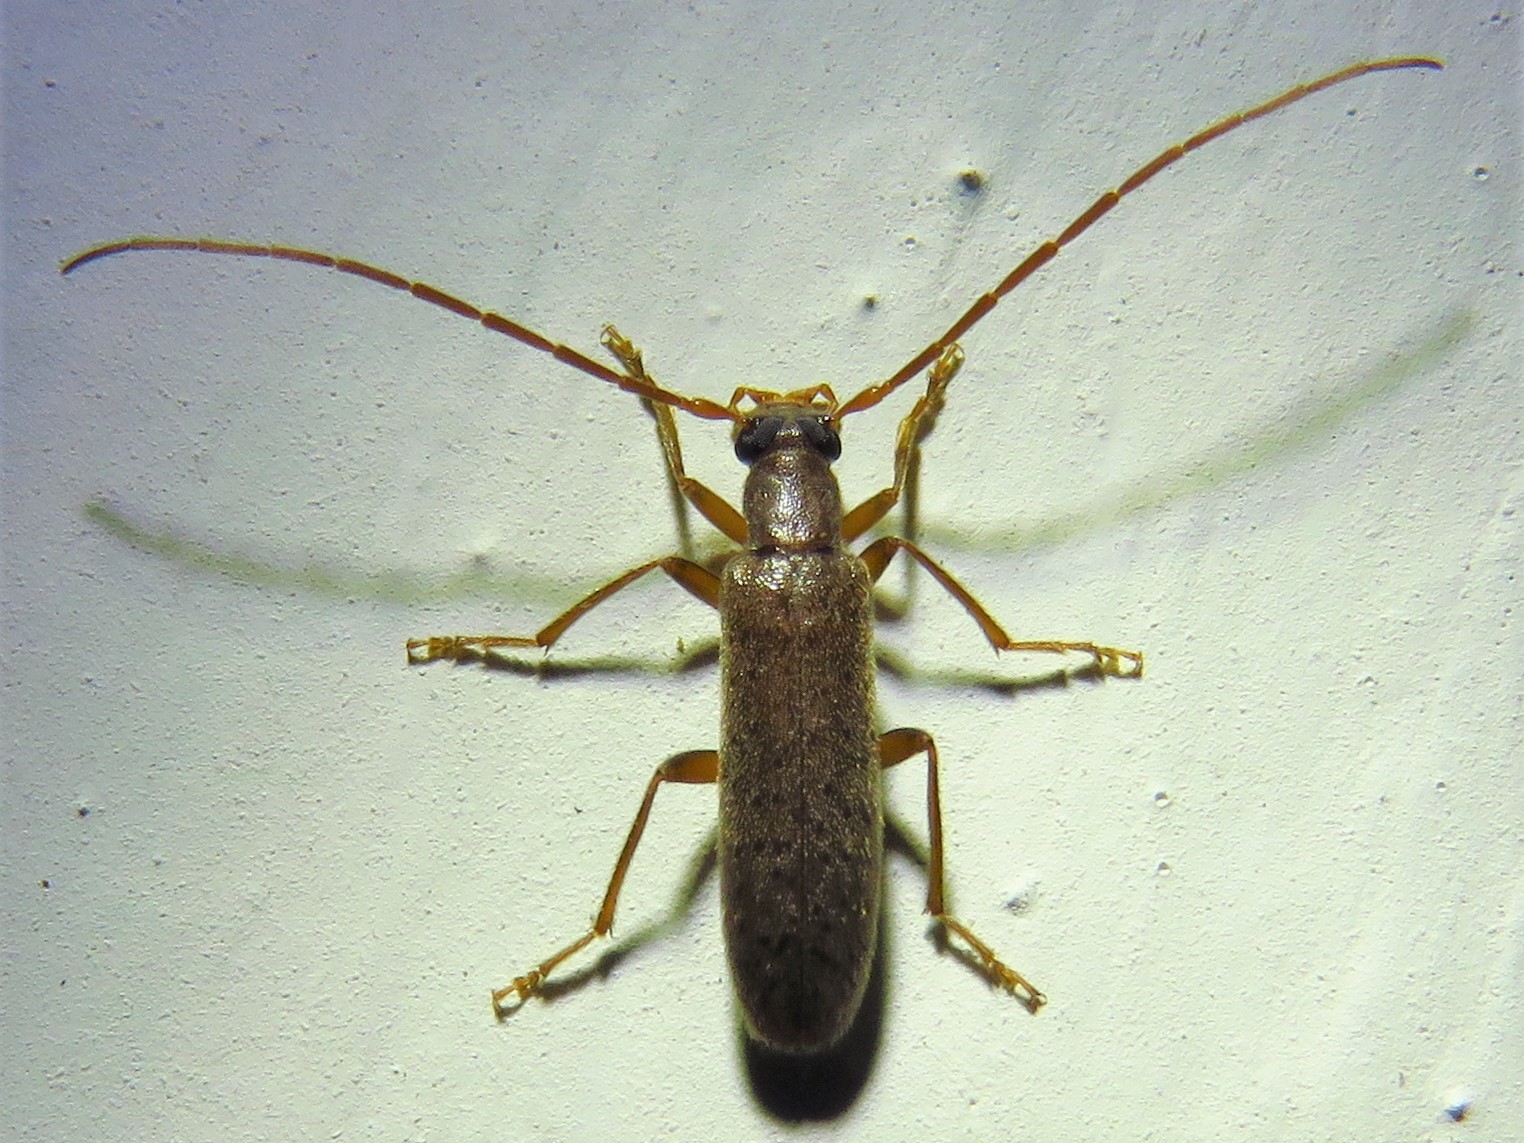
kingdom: Animalia
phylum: Arthropoda
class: Insecta
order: Coleoptera
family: Oedemeridae
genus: Sparedrus
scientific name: Sparedrus aspersus
